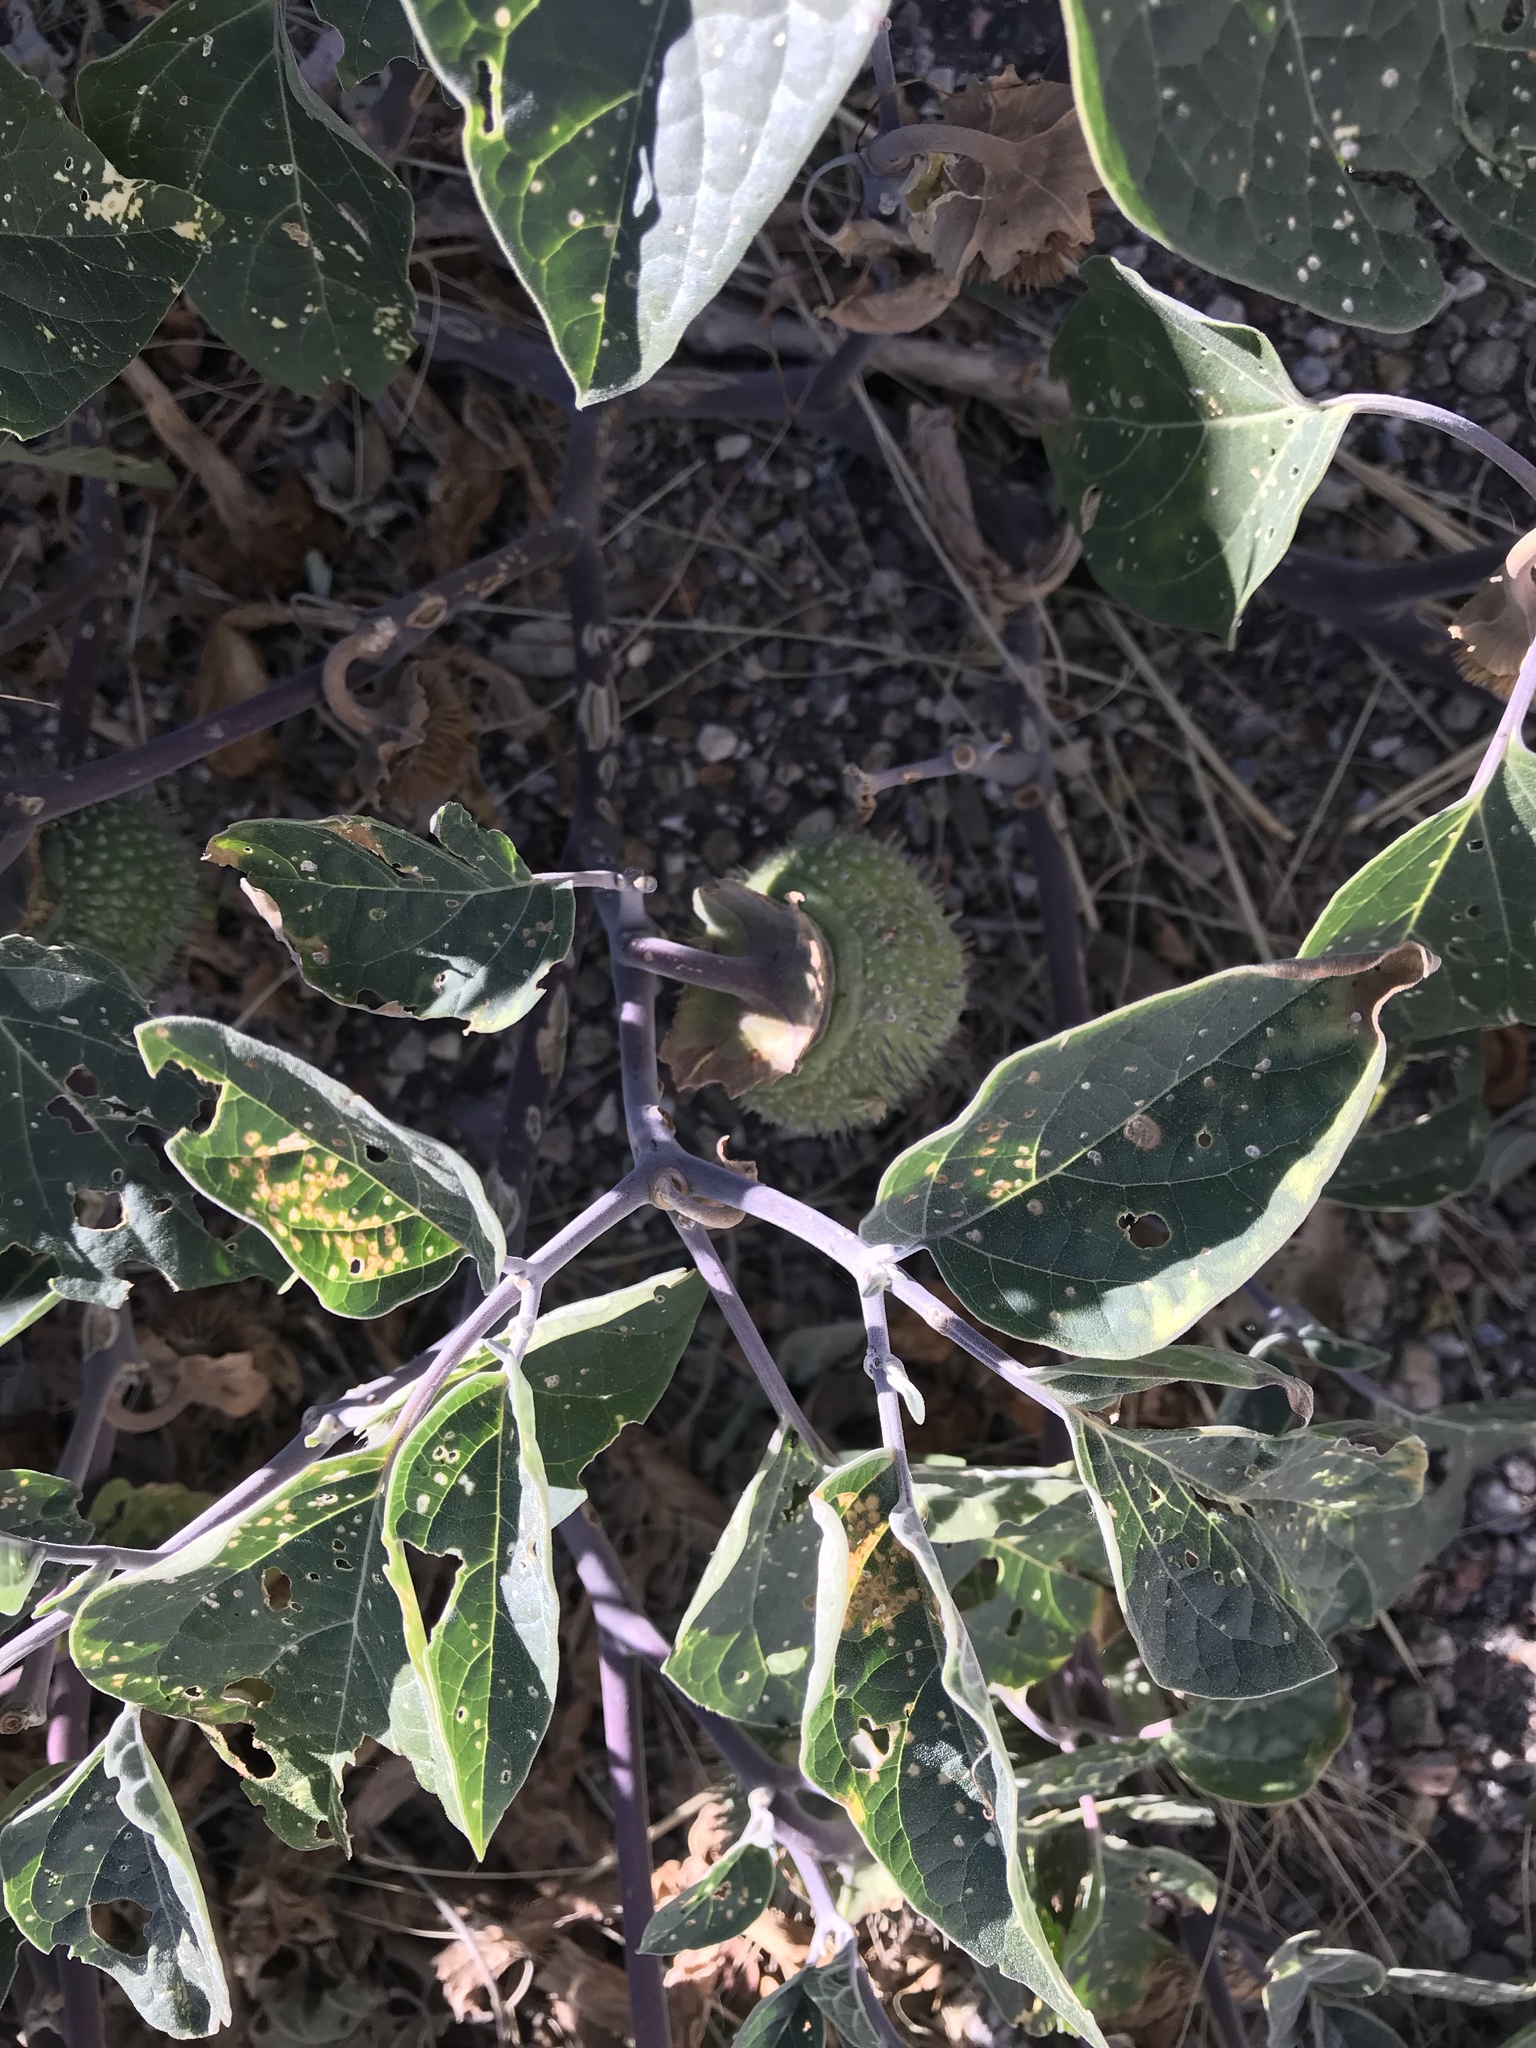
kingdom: Plantae
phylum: Tracheophyta
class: Magnoliopsida
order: Solanales
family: Solanaceae
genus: Datura
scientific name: Datura wrightii
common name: Sacred thorn-apple
